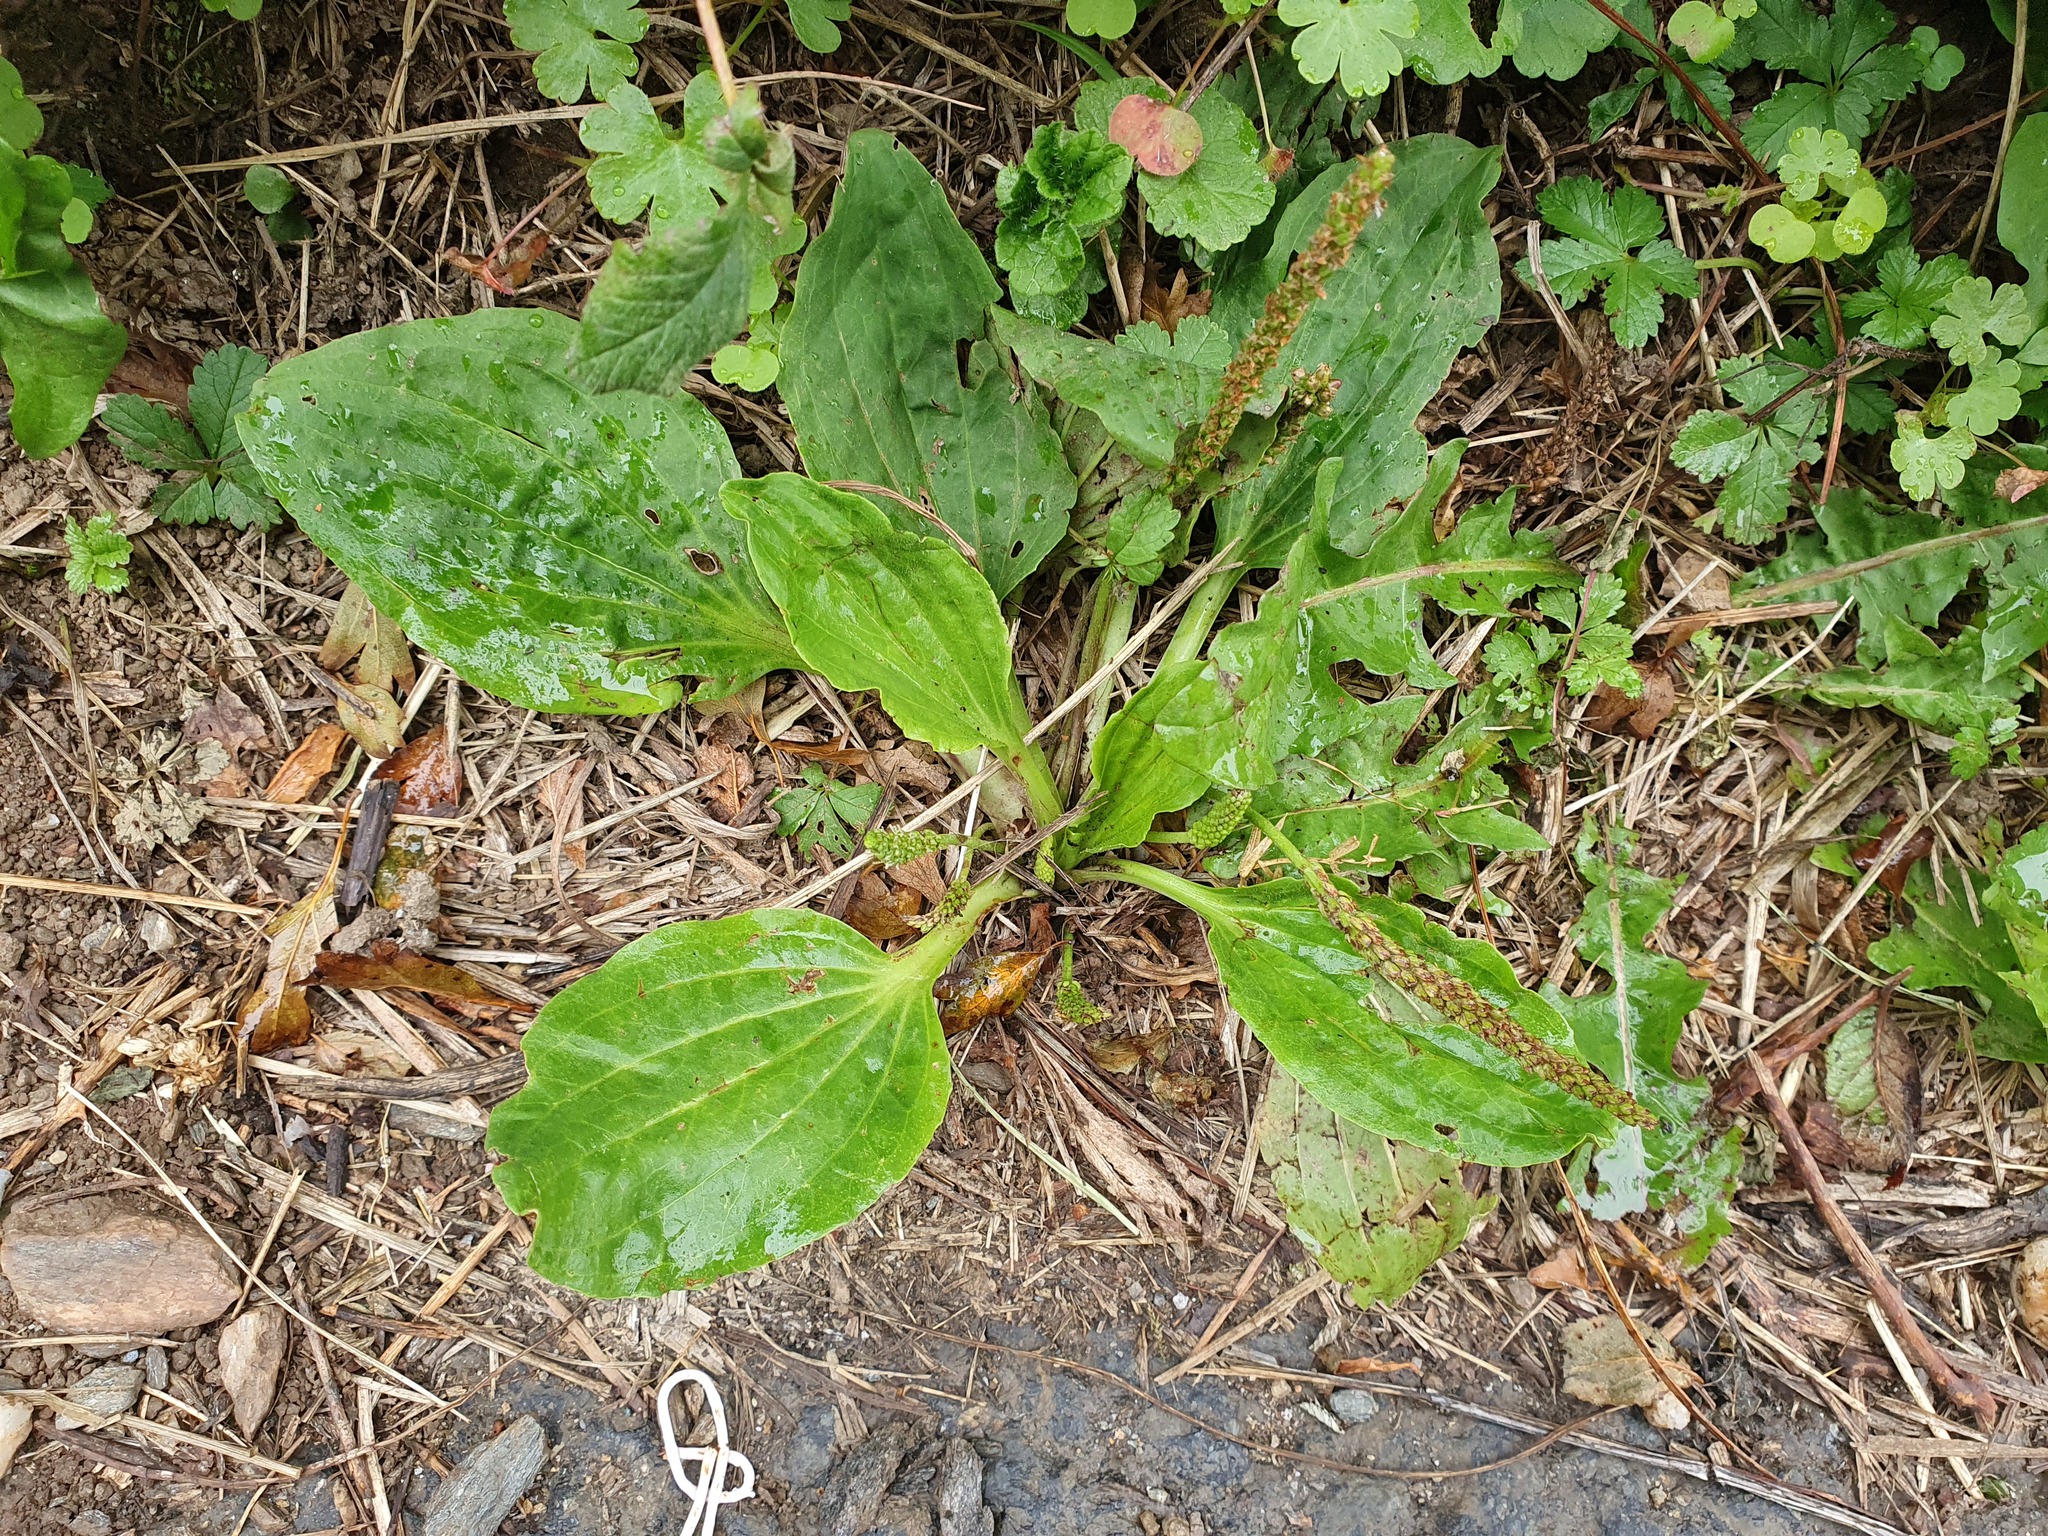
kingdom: Plantae
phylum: Tracheophyta
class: Magnoliopsida
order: Lamiales
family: Plantaginaceae
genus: Plantago
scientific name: Plantago major
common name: Common plantain
